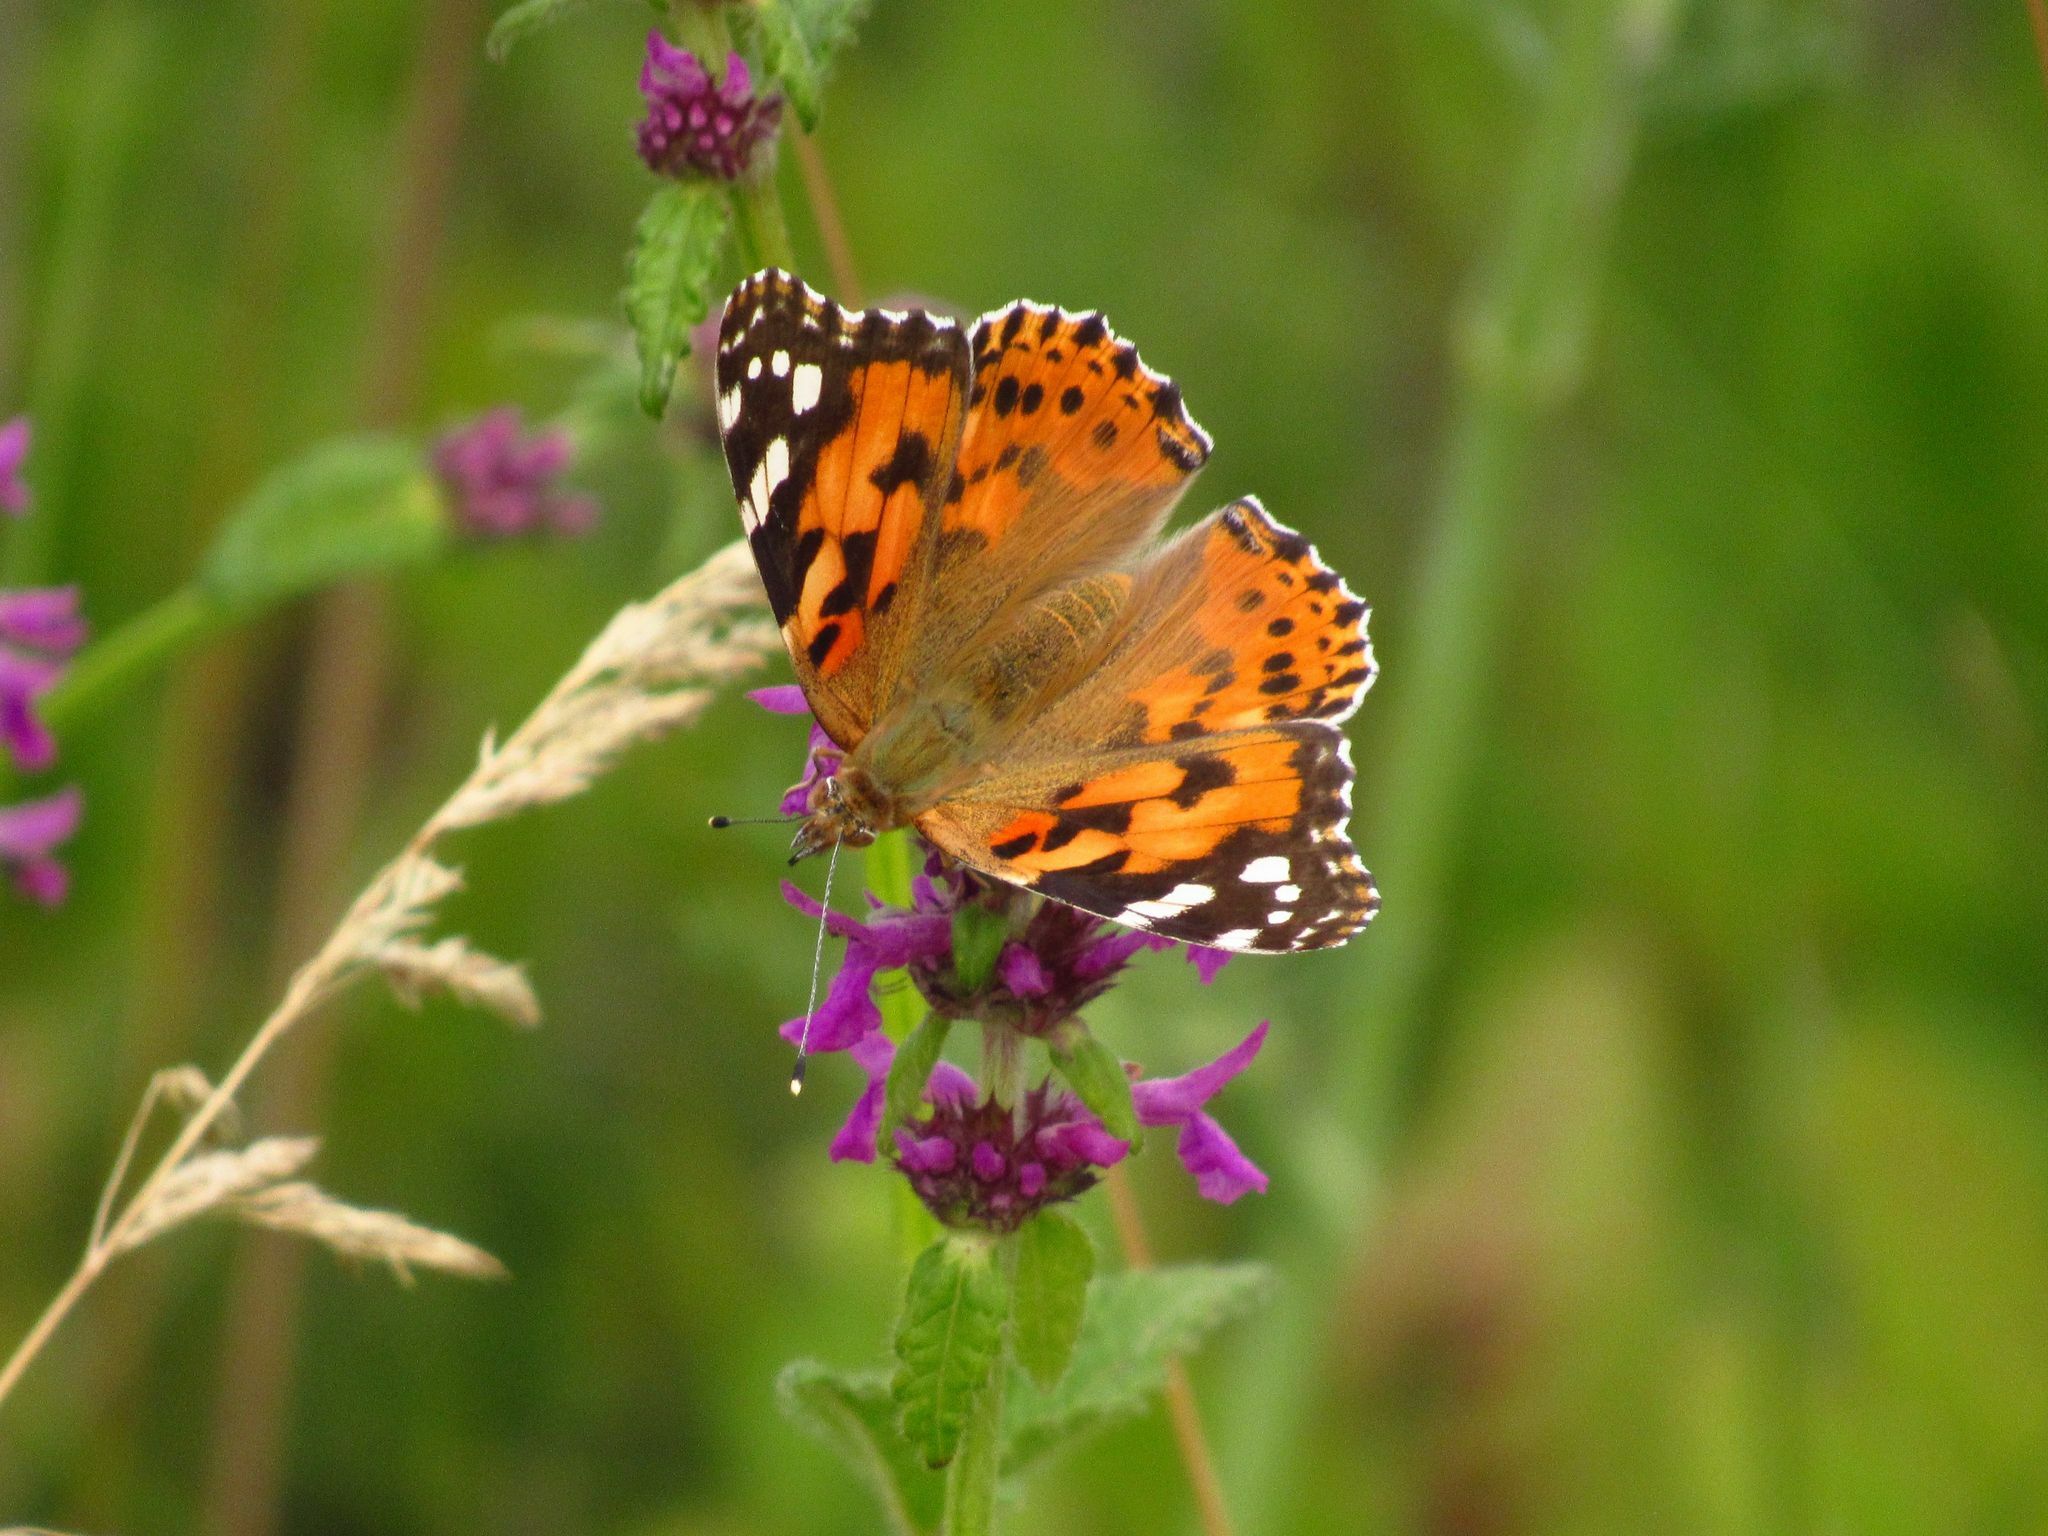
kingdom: Animalia
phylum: Arthropoda
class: Insecta
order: Lepidoptera
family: Nymphalidae
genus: Vanessa
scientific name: Vanessa cardui
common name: Painted lady
